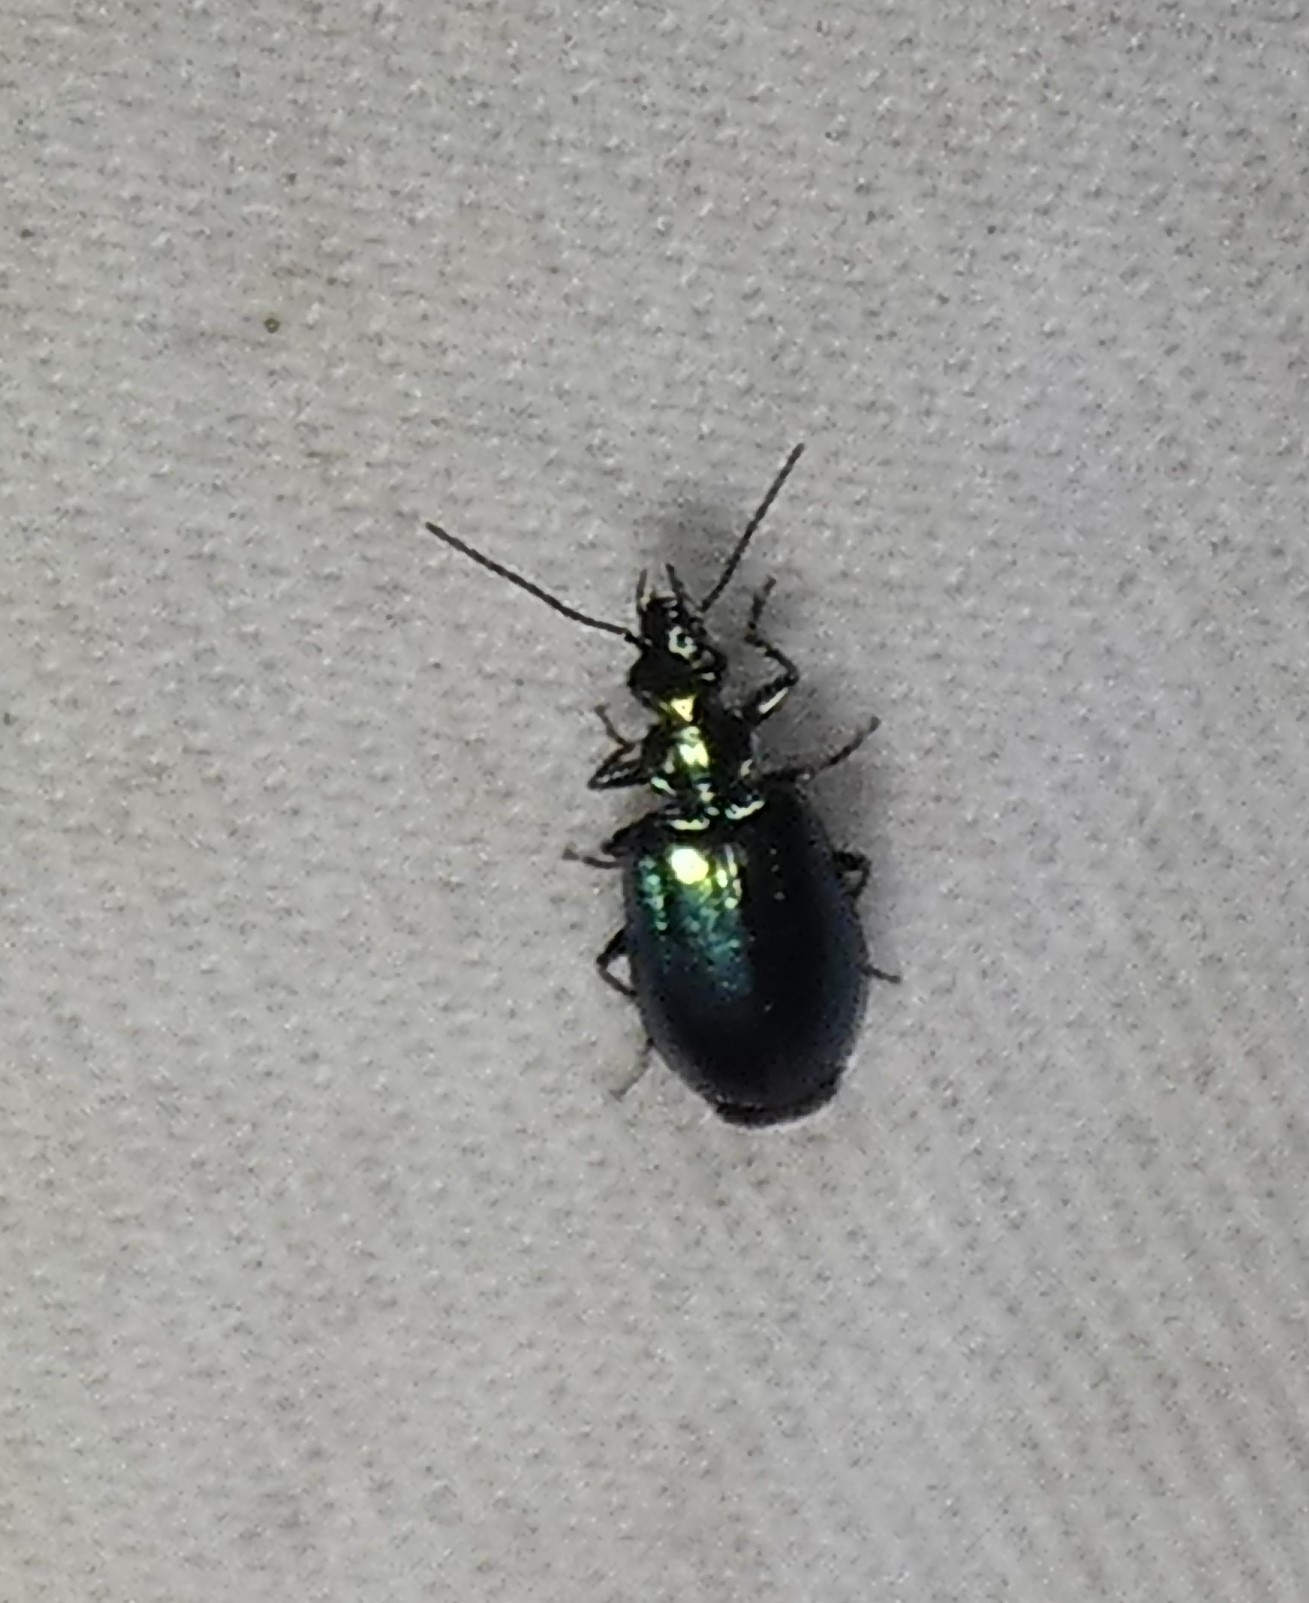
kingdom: Animalia
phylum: Arthropoda
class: Insecta
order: Coleoptera
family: Carabidae
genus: Lebia
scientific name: Lebia viridis
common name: Flower lebia beetle
